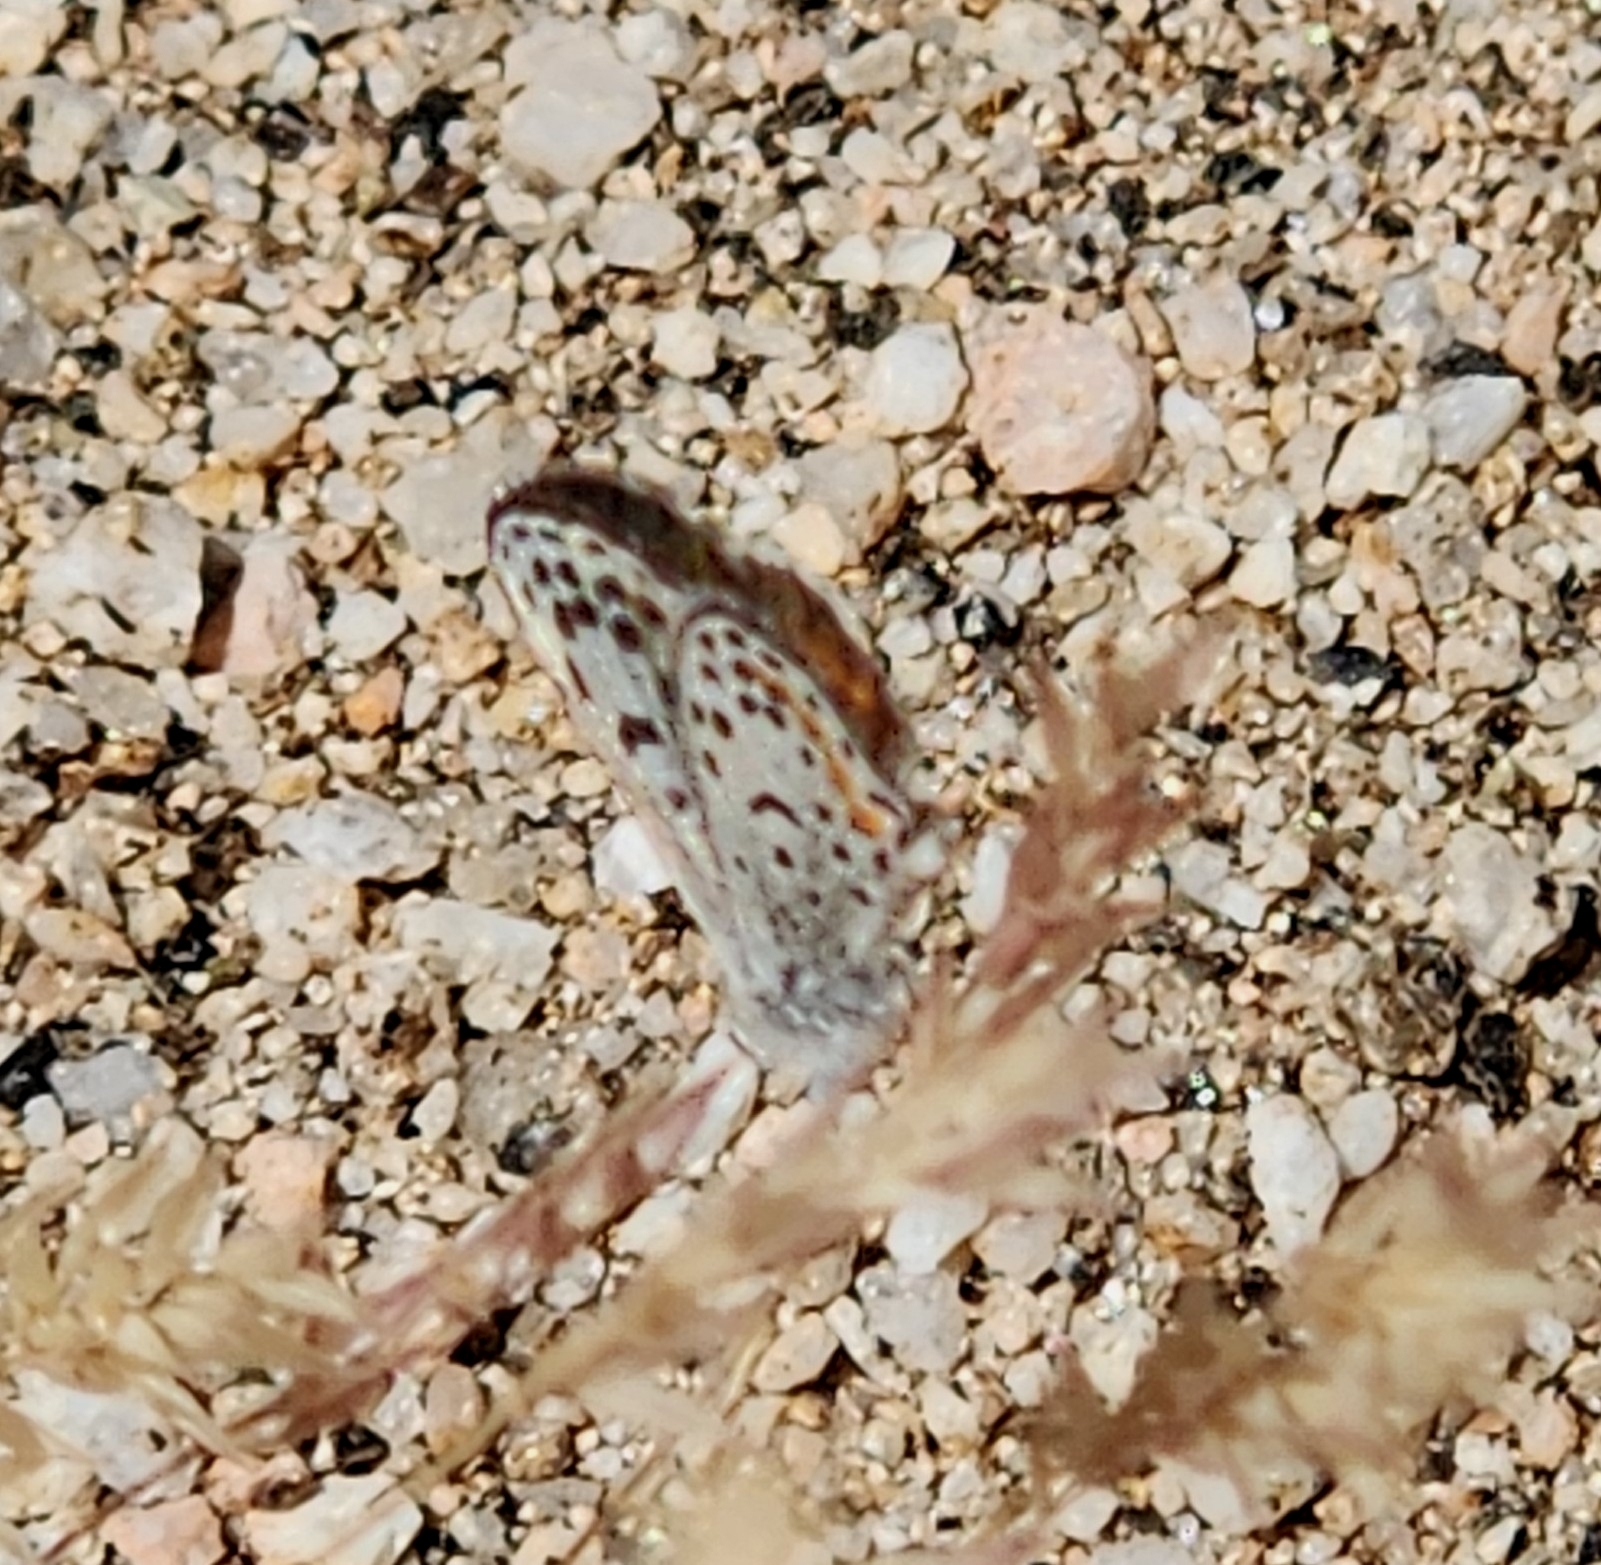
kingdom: Animalia
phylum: Arthropoda
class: Insecta
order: Lepidoptera
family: Lycaenidae
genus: Euphilotes
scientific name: Euphilotes enoptes
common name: Dotted blue
